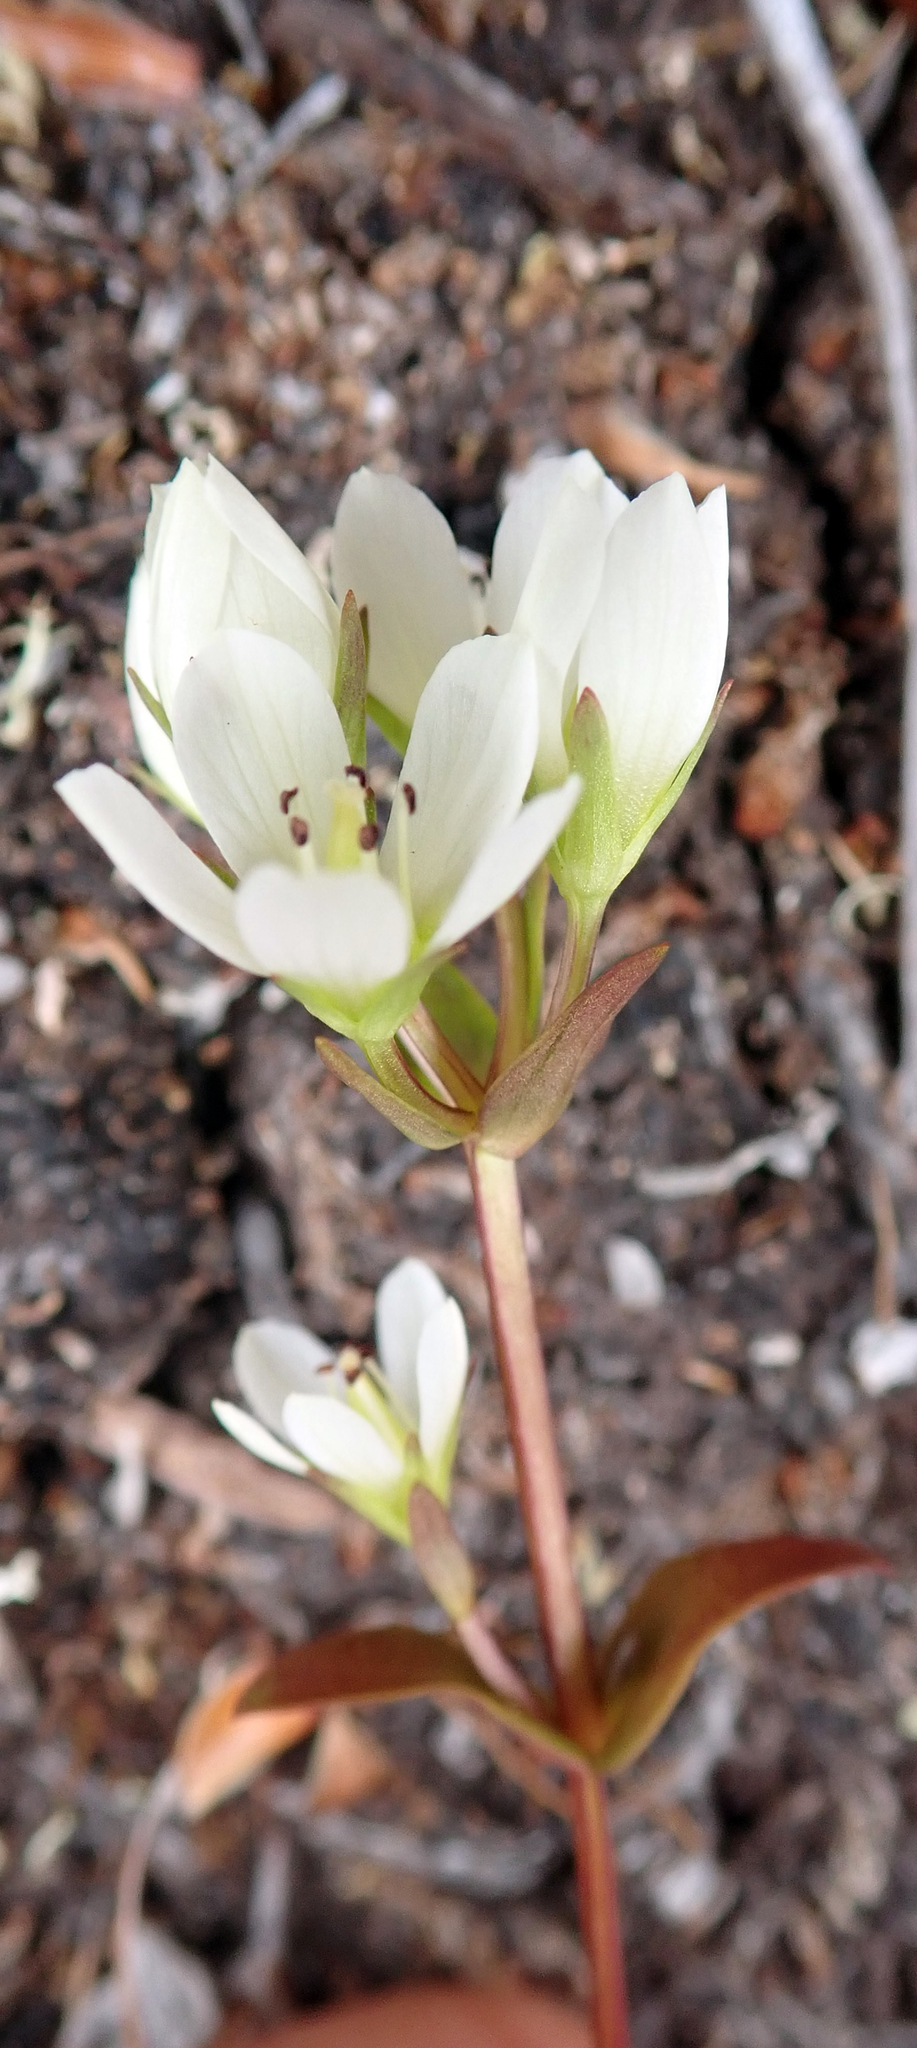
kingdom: Plantae
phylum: Tracheophyta
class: Magnoliopsida
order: Gentianales
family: Gentianaceae
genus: Gentianella
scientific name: Gentianella chathamica
